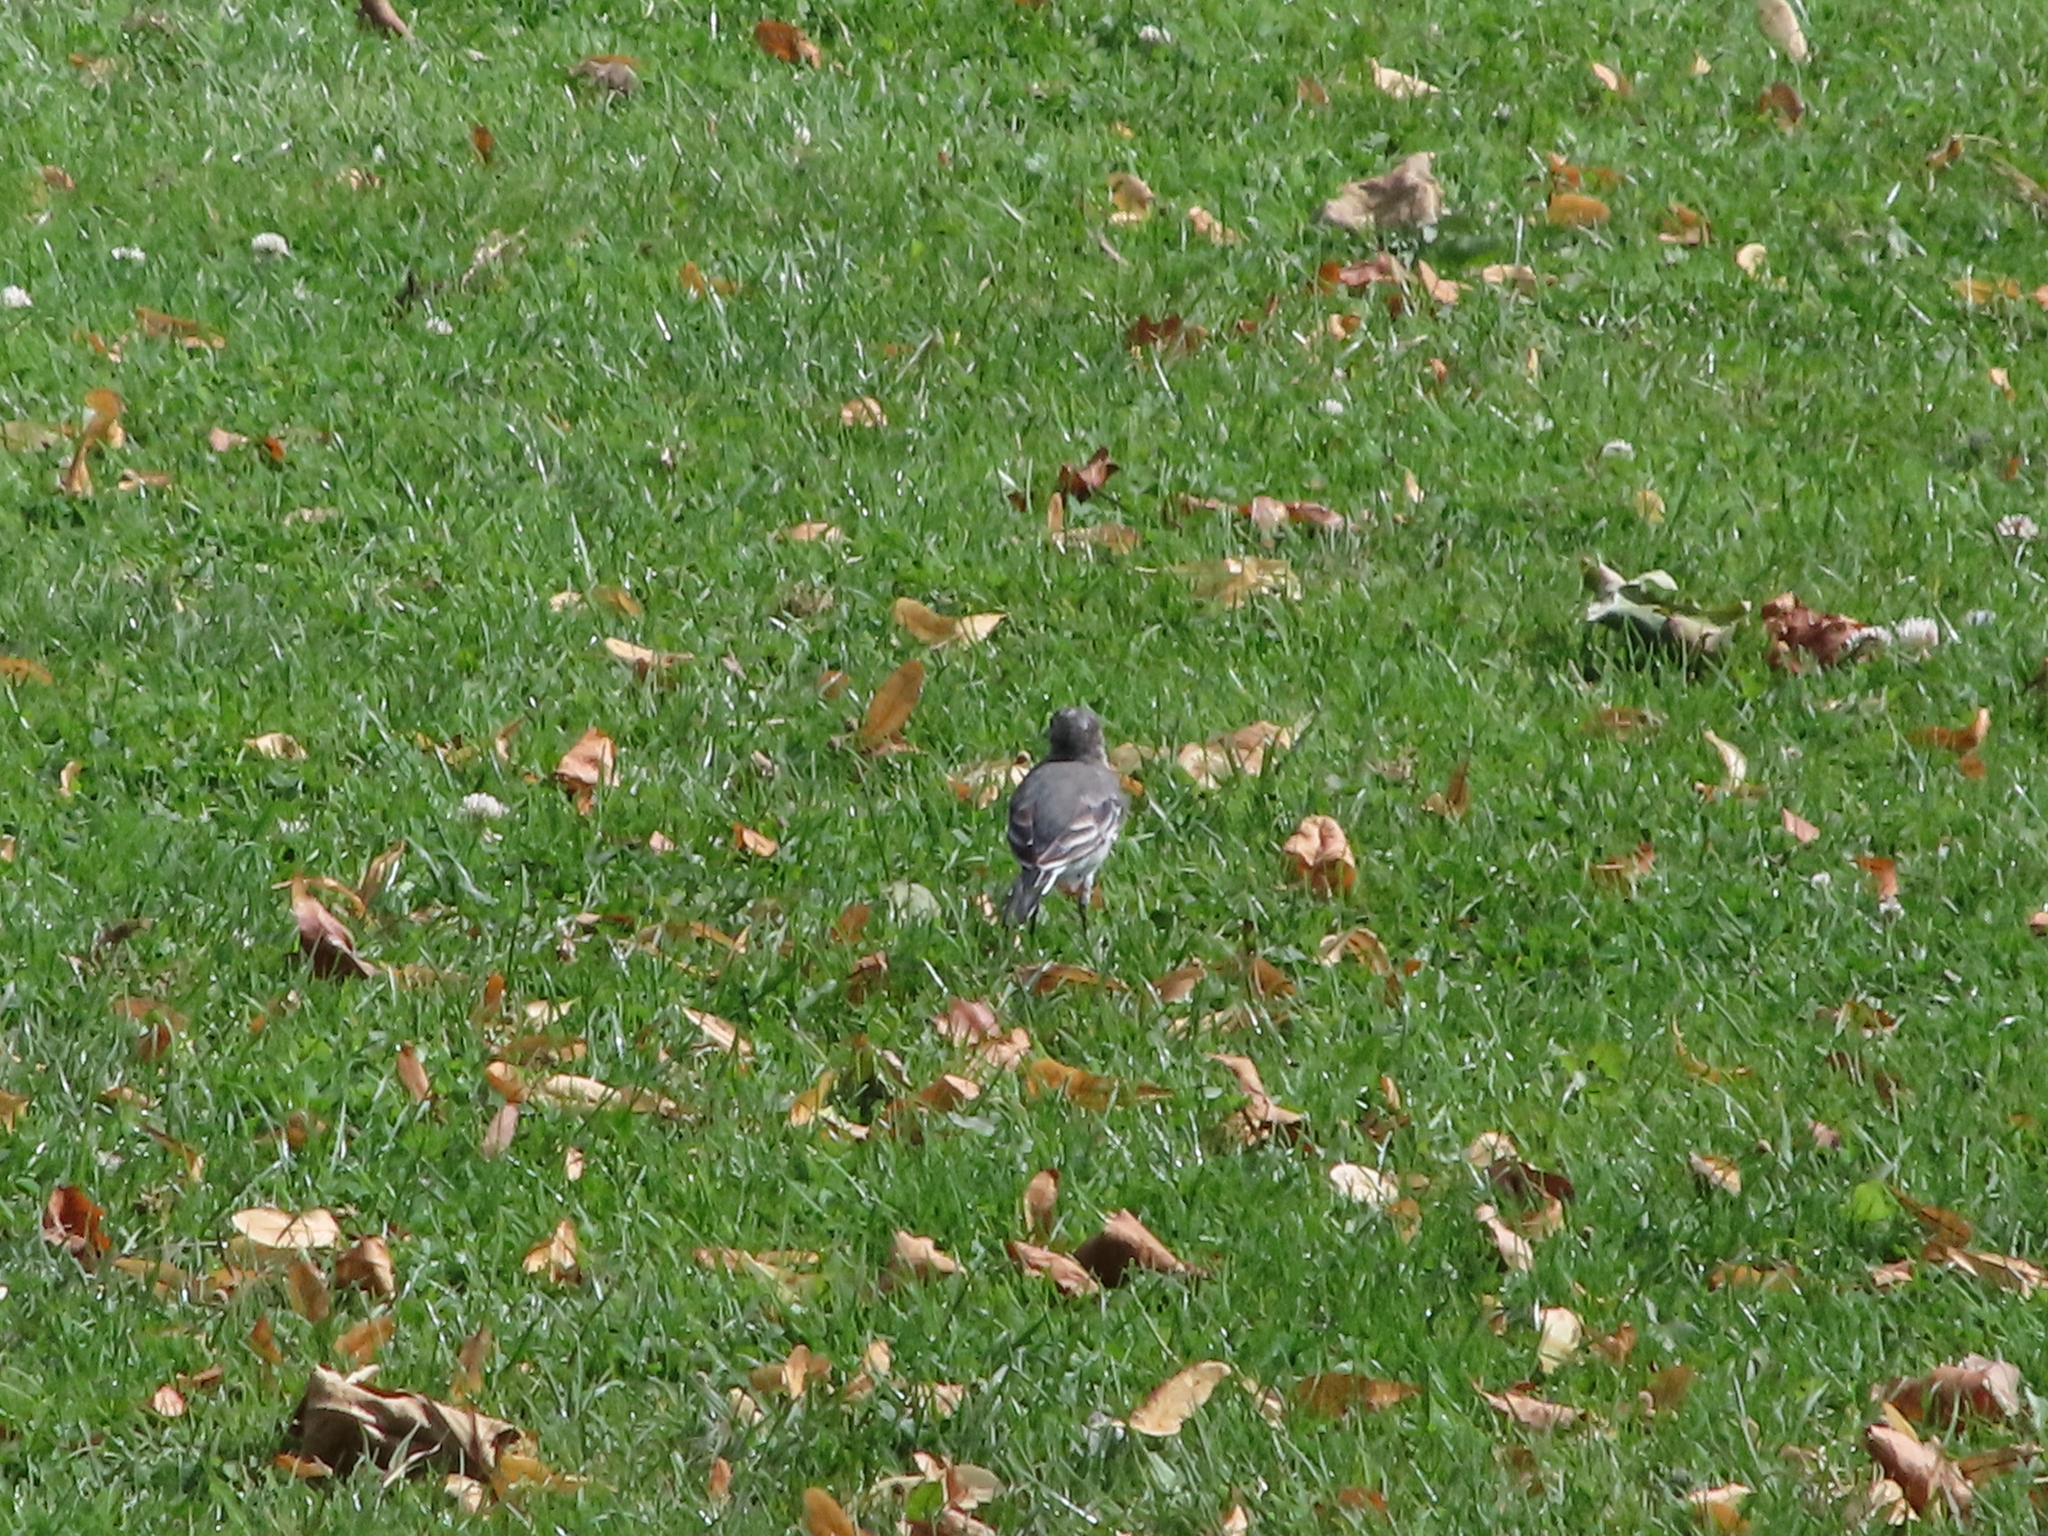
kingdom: Animalia
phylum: Chordata
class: Aves
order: Passeriformes
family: Motacillidae
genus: Motacilla
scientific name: Motacilla alba
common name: White wagtail
